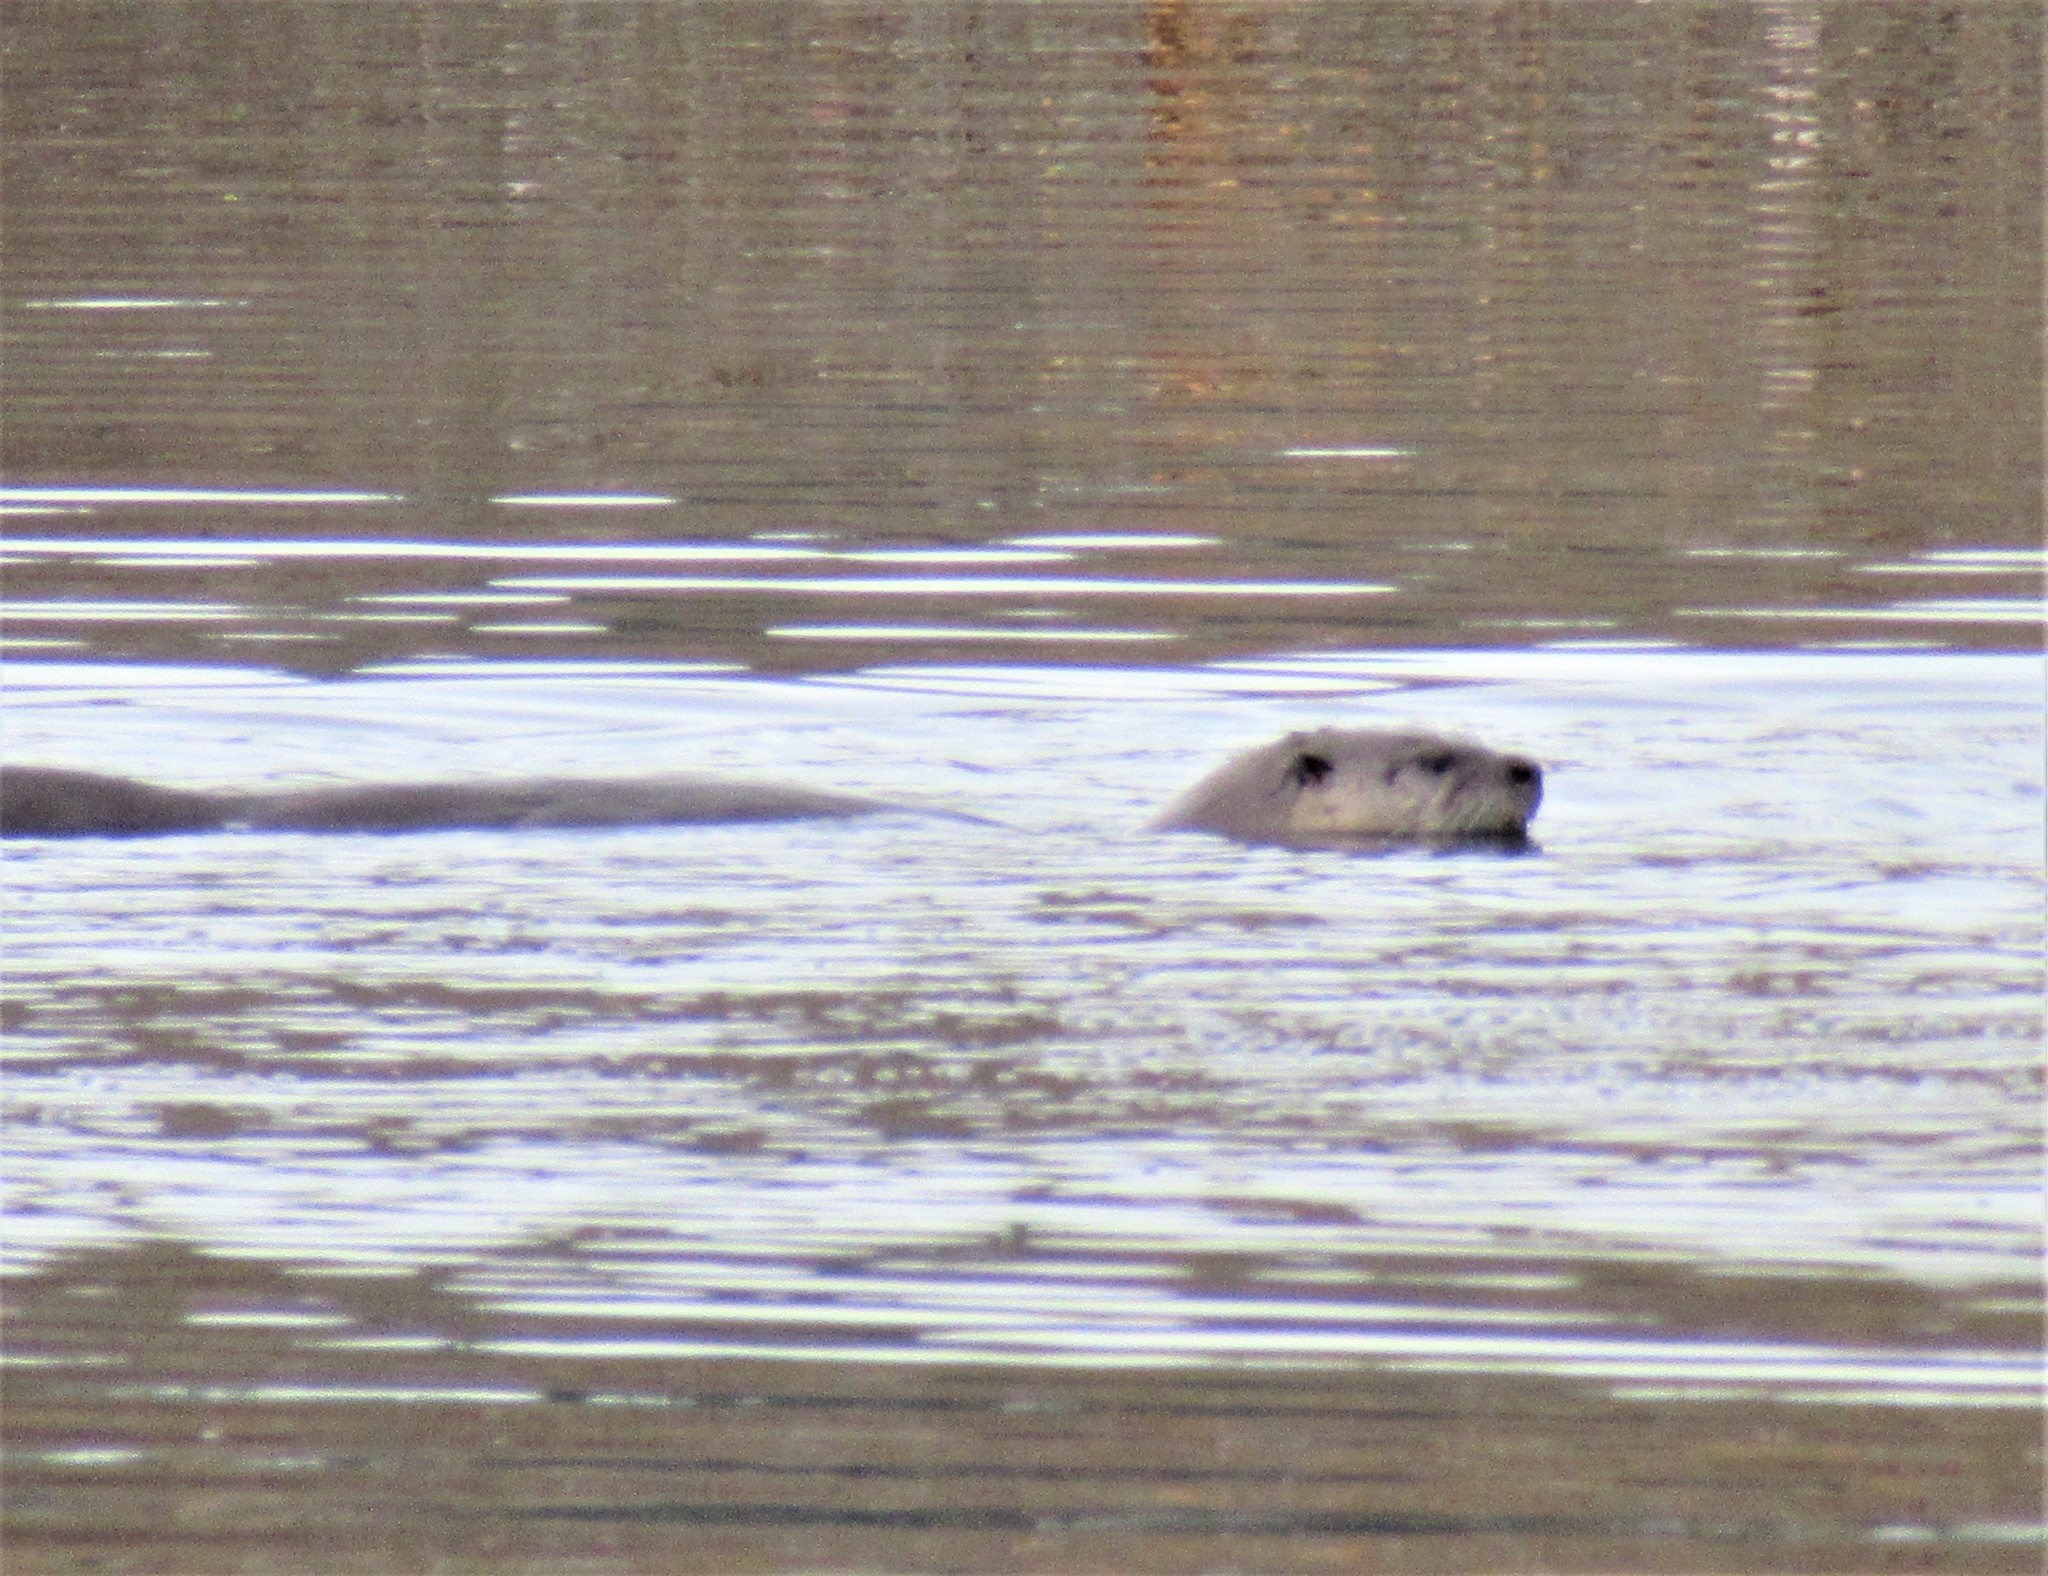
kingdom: Animalia
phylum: Chordata
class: Mammalia
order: Carnivora
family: Mustelidae
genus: Lontra
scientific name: Lontra canadensis
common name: North american river otter
